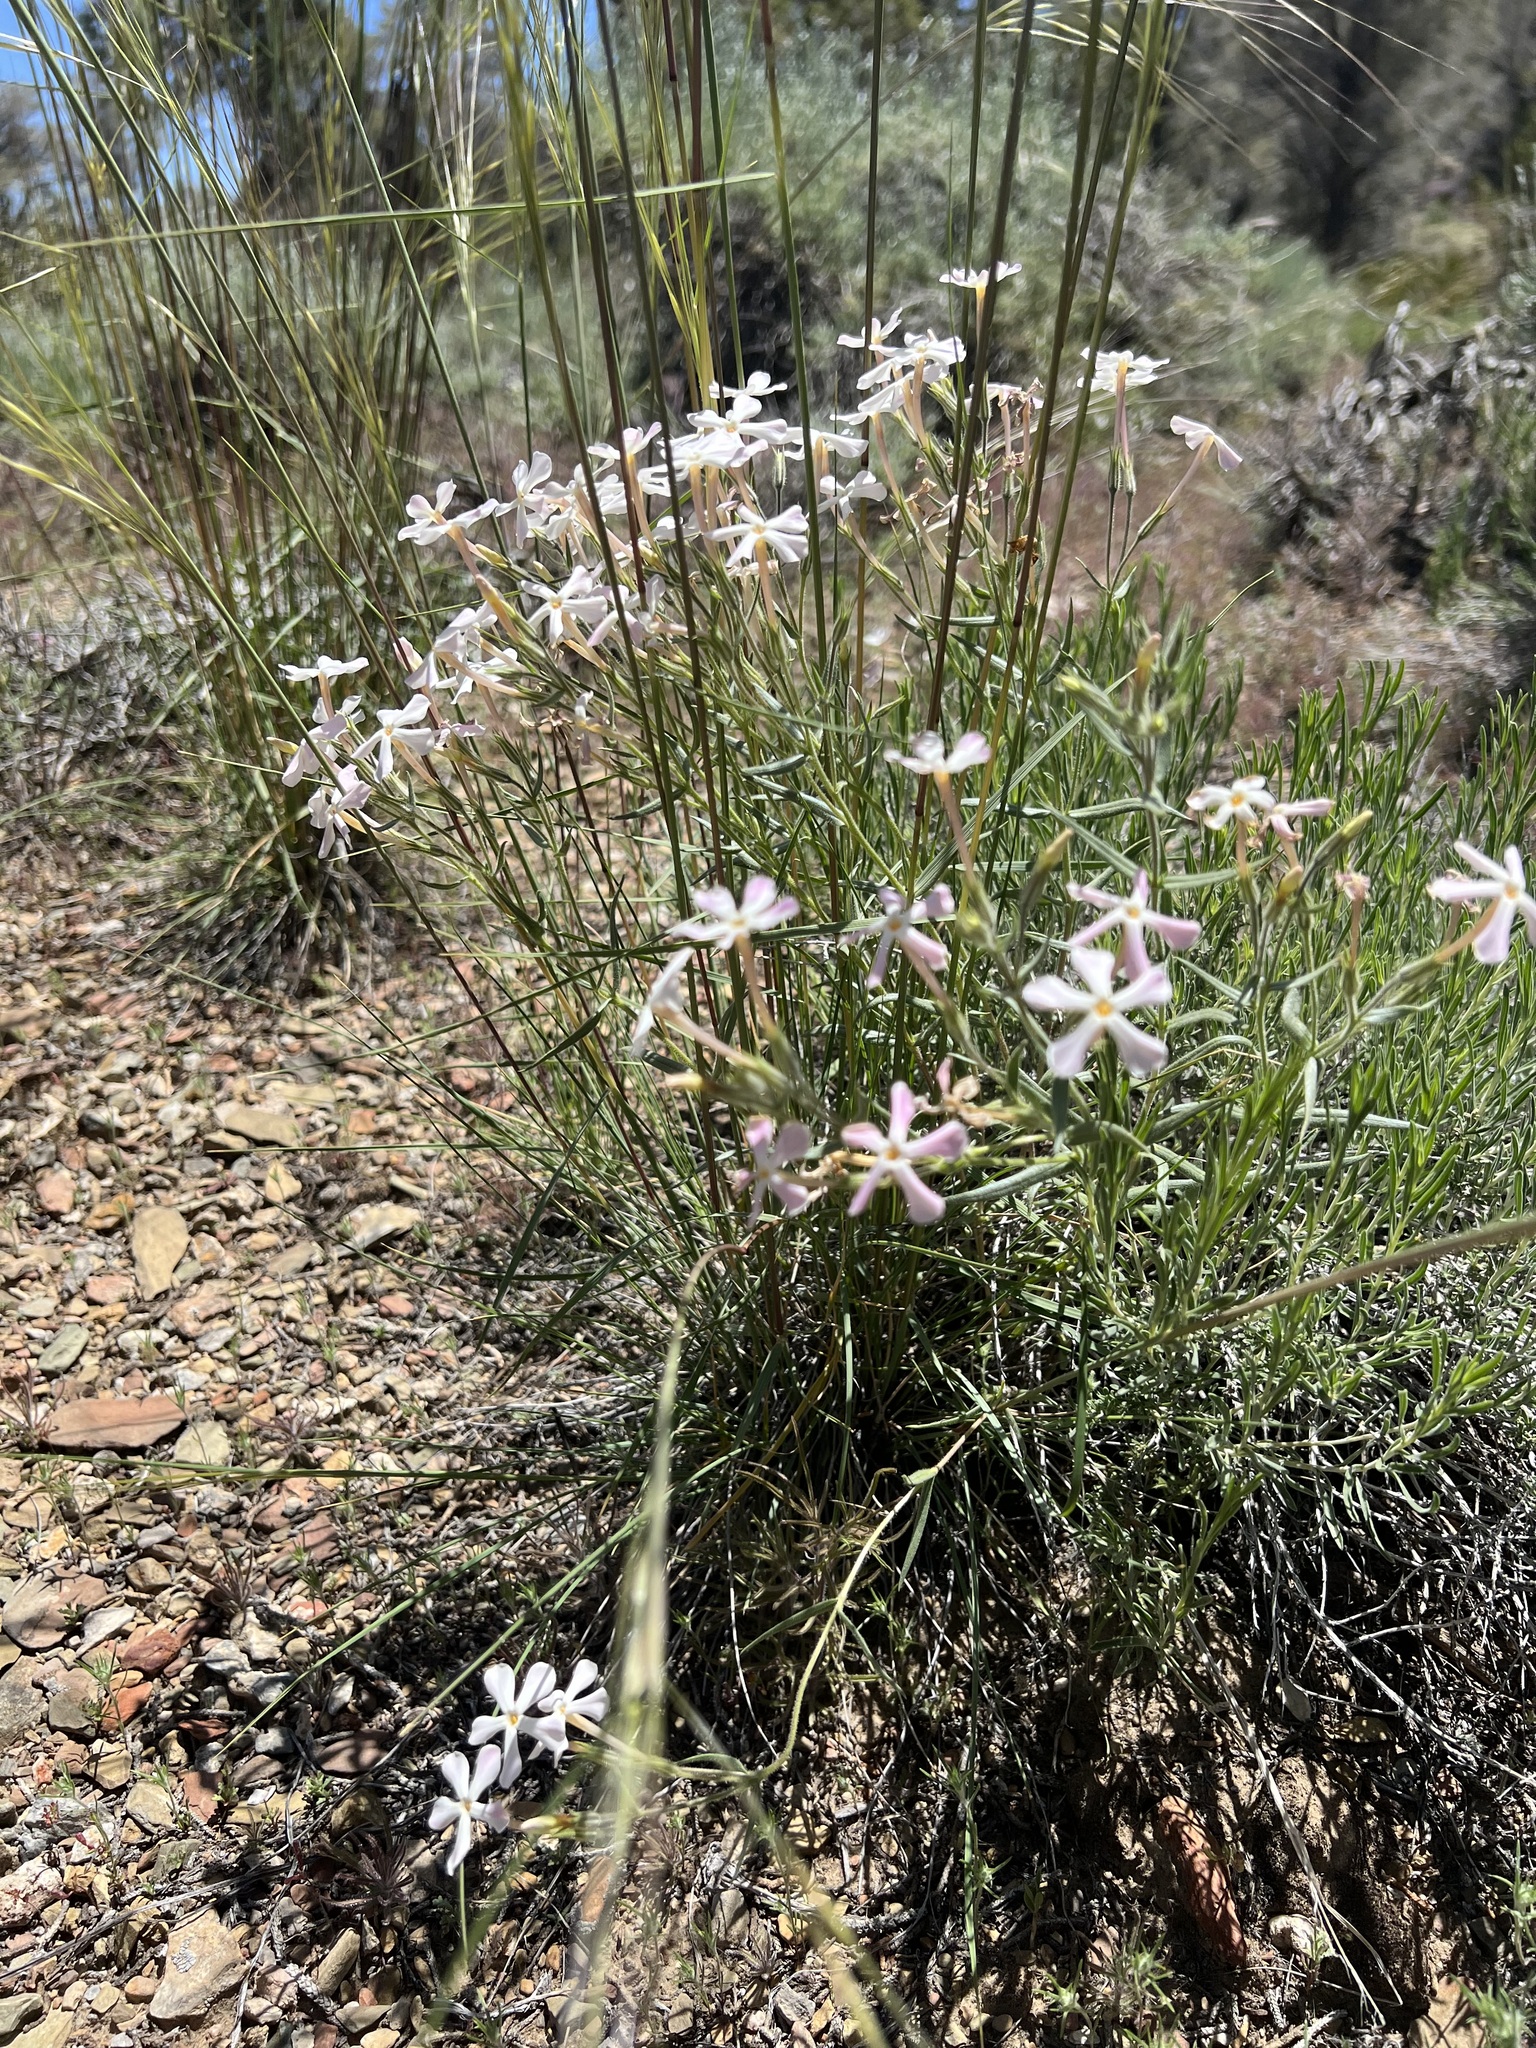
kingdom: Plantae
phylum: Tracheophyta
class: Magnoliopsida
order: Ericales
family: Polemoniaceae
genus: Phlox
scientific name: Phlox longifolia
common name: Longleaf phlox
